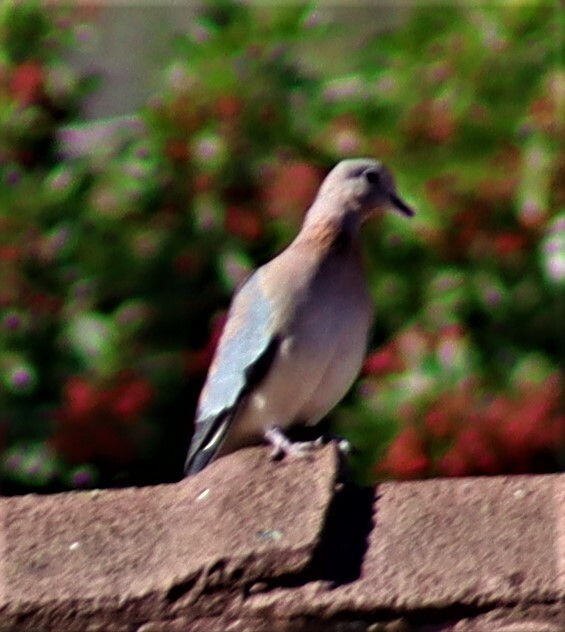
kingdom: Animalia
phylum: Chordata
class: Aves
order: Columbiformes
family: Columbidae
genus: Spilopelia
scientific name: Spilopelia senegalensis
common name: Laughing dove
